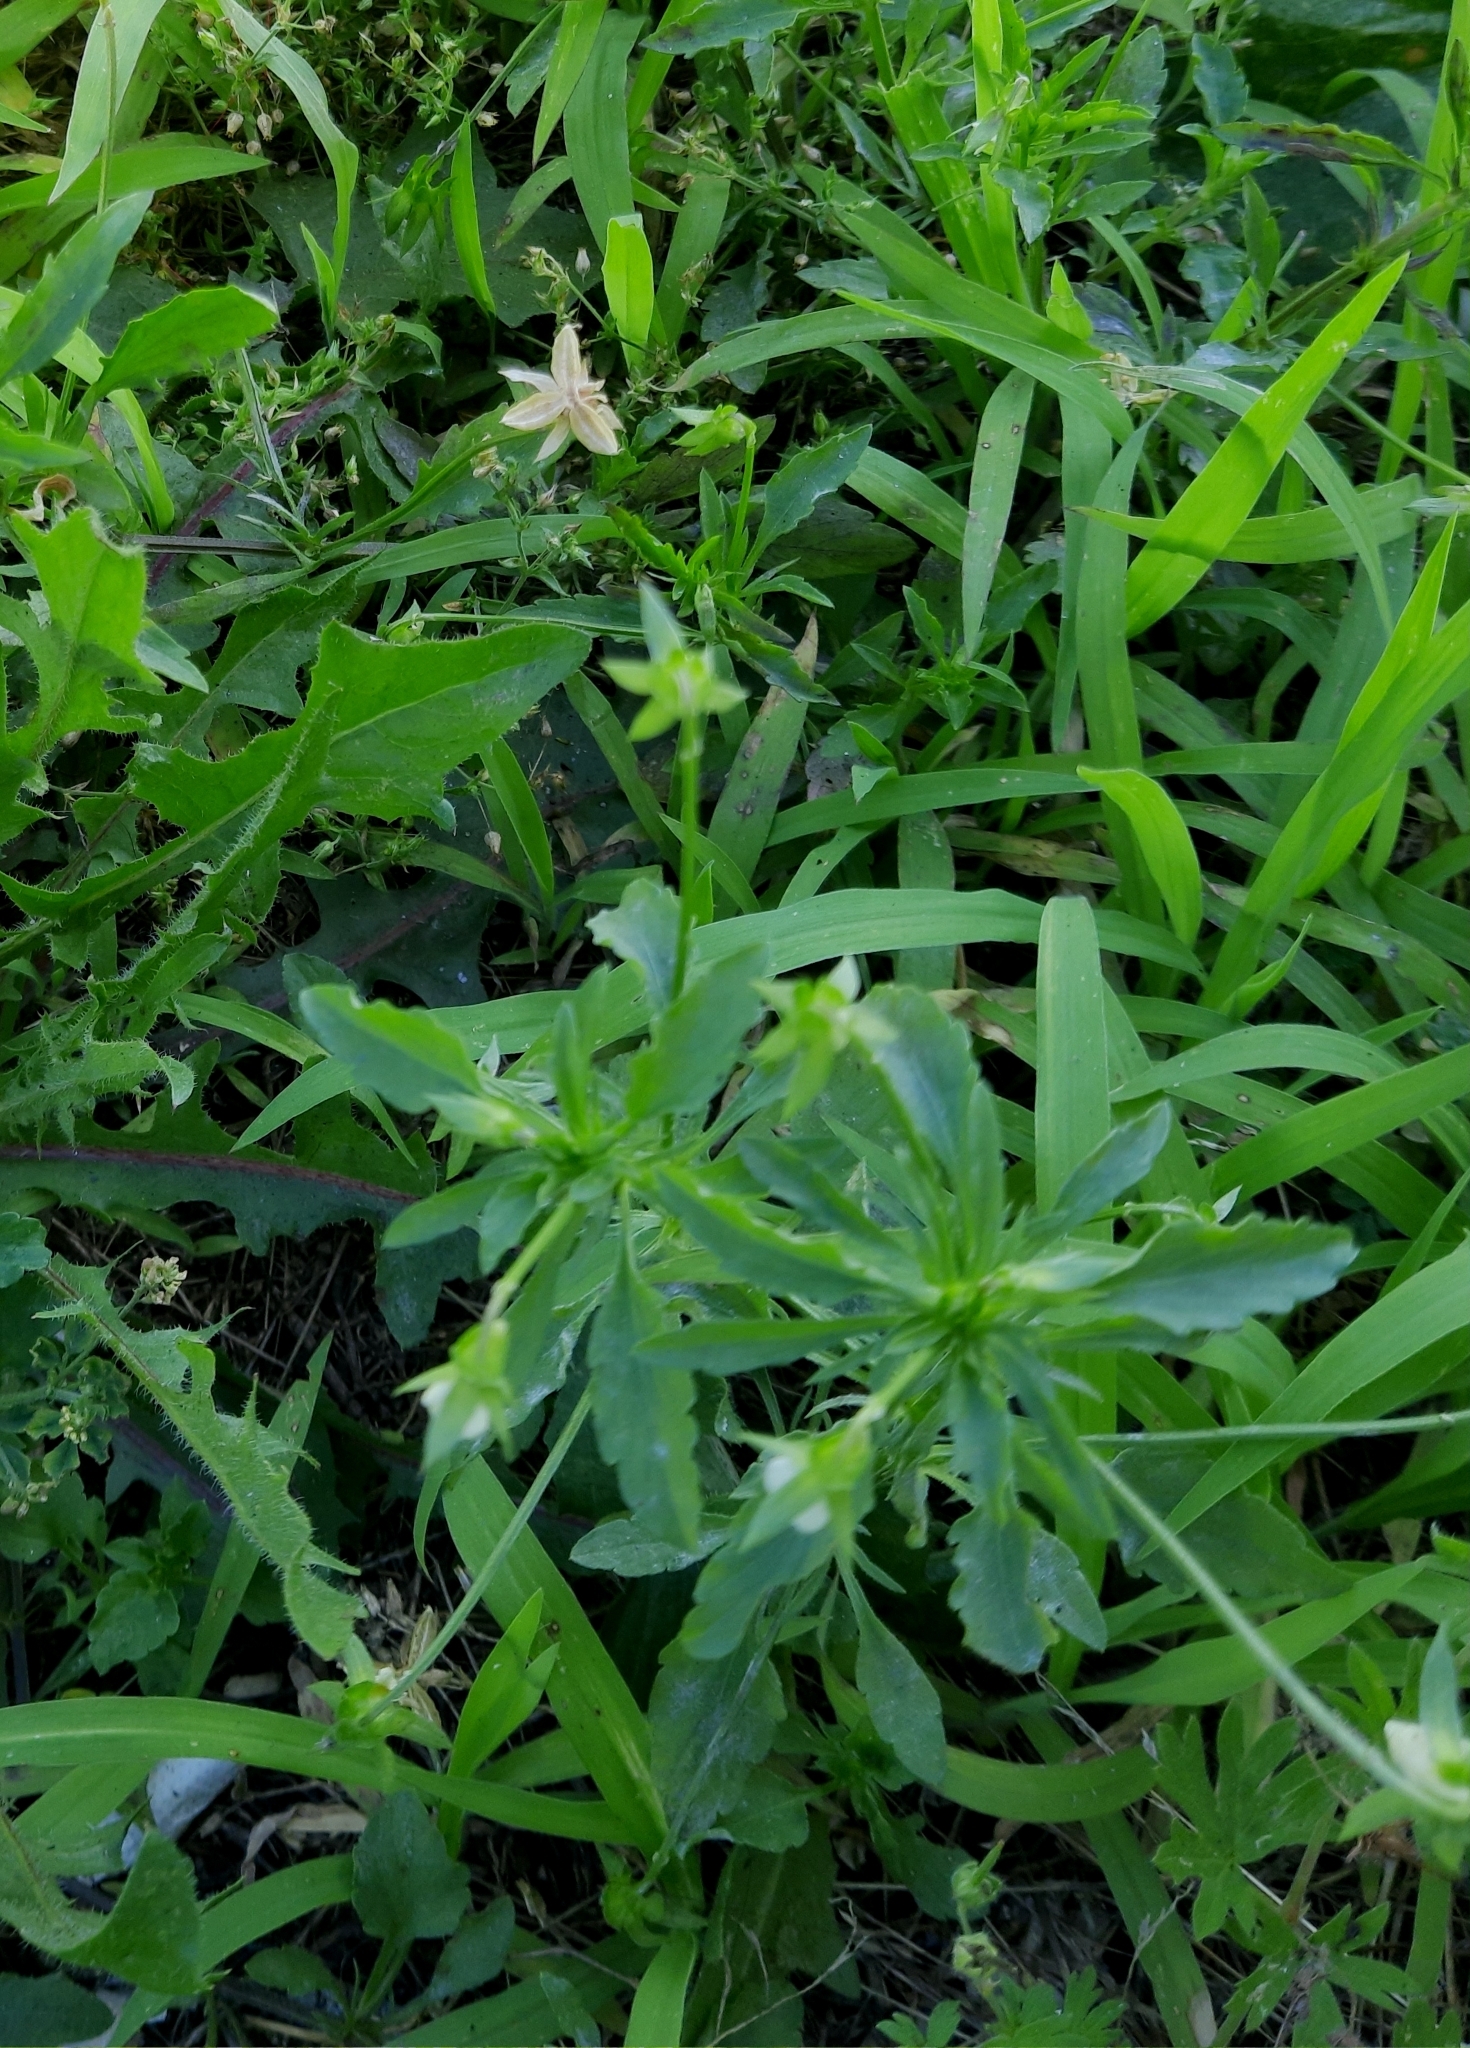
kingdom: Plantae
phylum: Tracheophyta
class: Magnoliopsida
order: Malpighiales
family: Violaceae
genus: Viola
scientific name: Viola arvensis
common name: Field pansy
